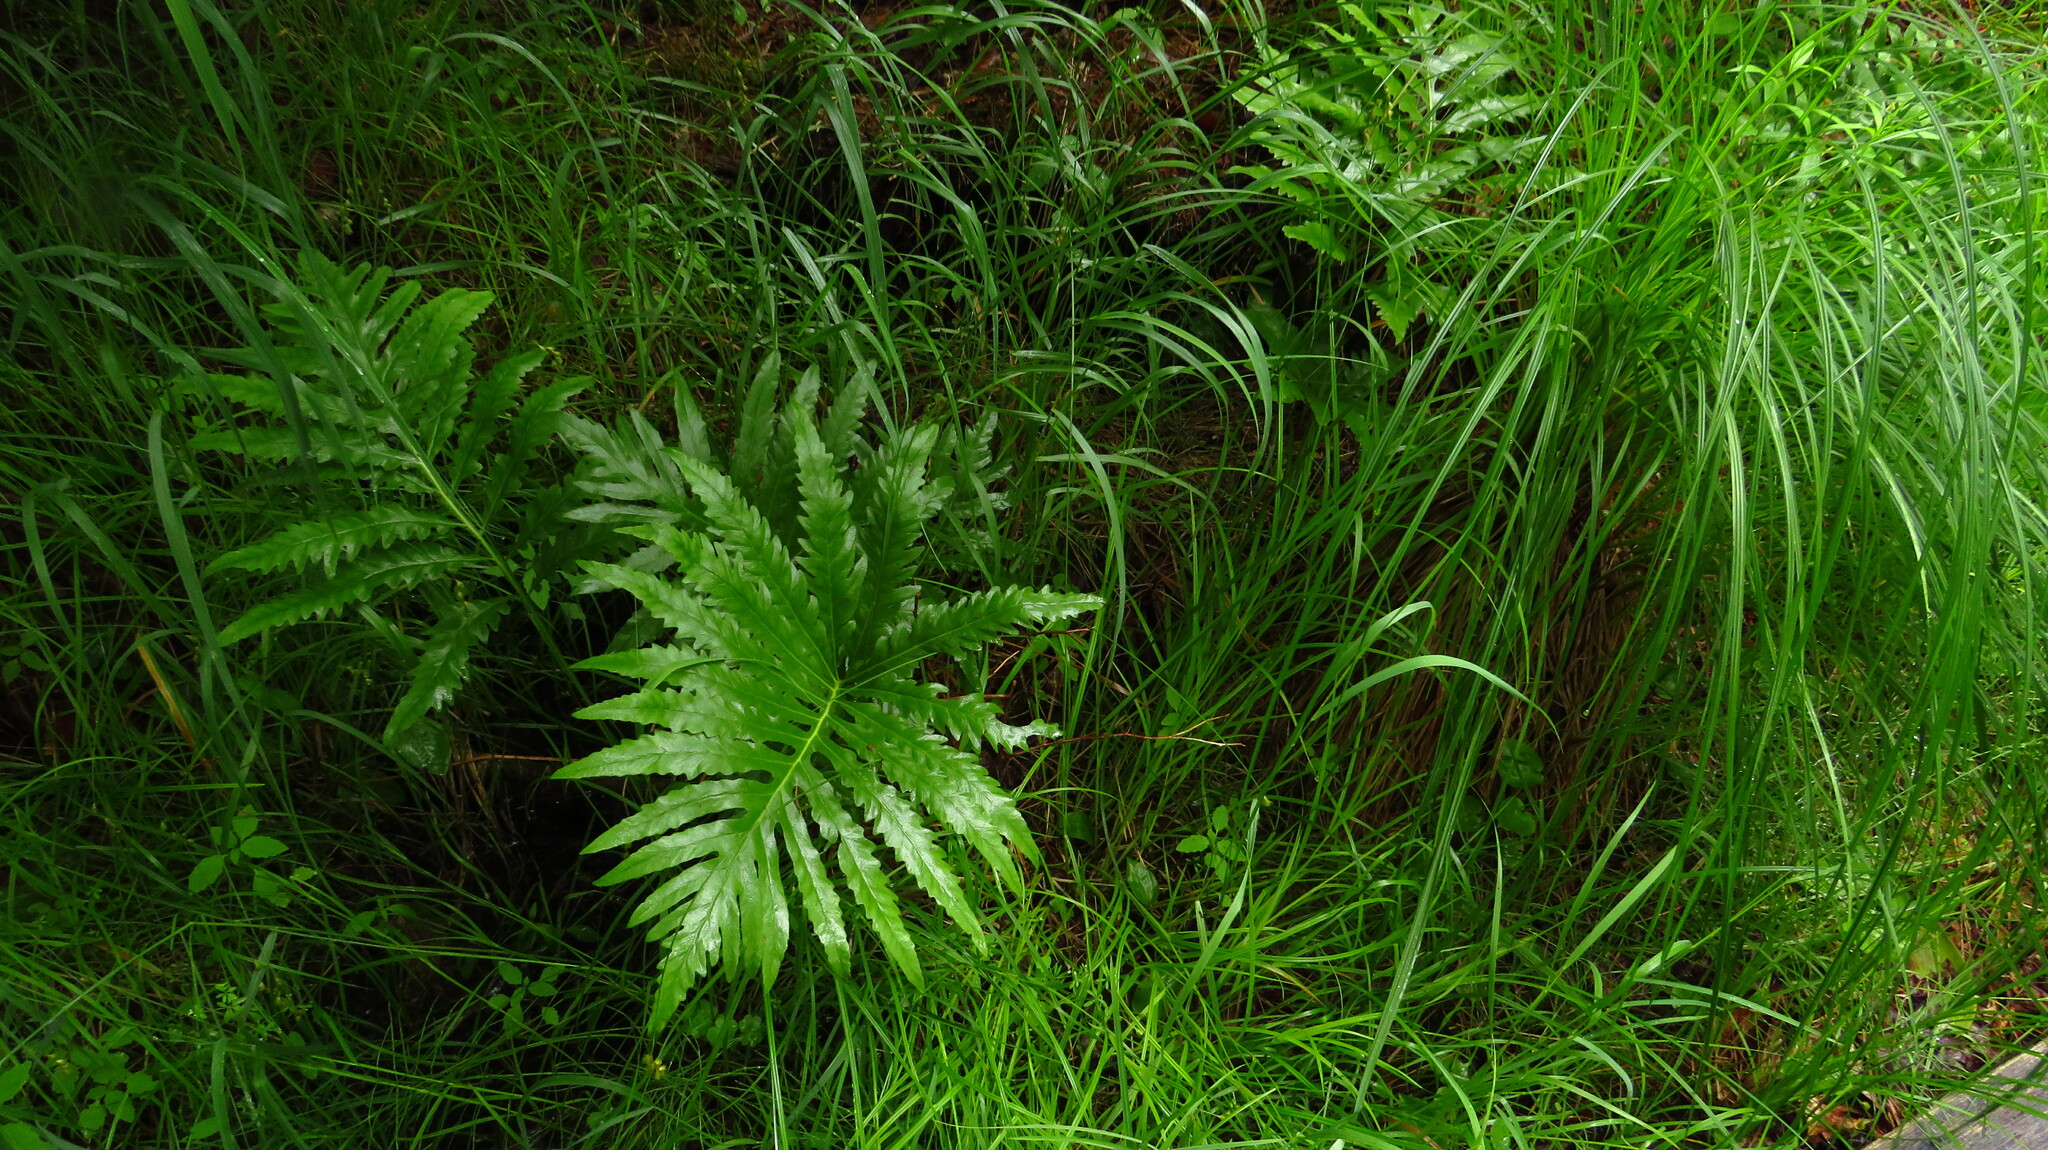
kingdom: Plantae
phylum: Tracheophyta
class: Polypodiopsida
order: Polypodiales
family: Onocleaceae
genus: Onoclea
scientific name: Onoclea sensibilis
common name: Sensitive fern
